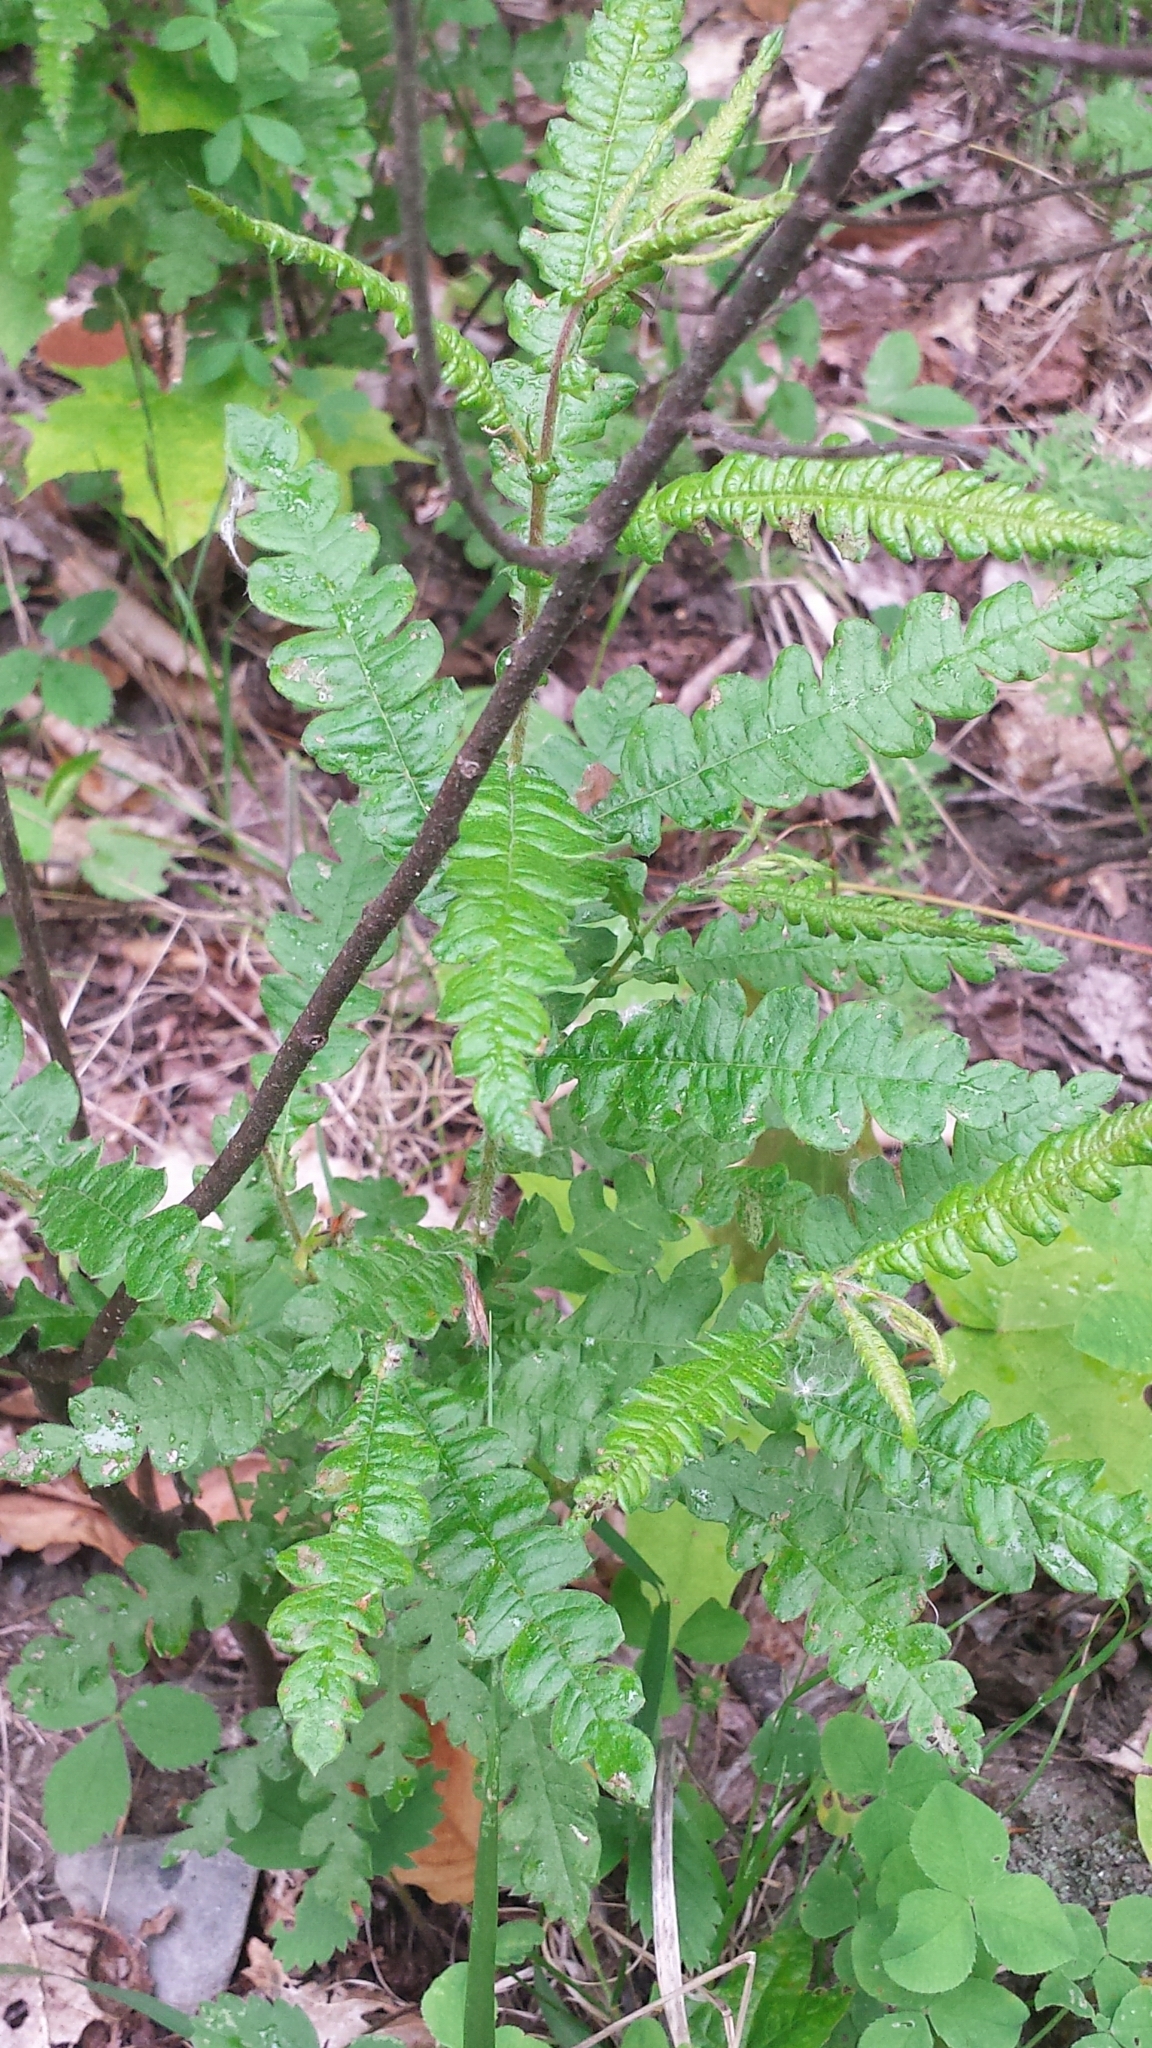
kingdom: Plantae
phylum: Tracheophyta
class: Magnoliopsida
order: Fagales
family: Myricaceae
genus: Comptonia
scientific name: Comptonia peregrina
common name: Sweet-fern
